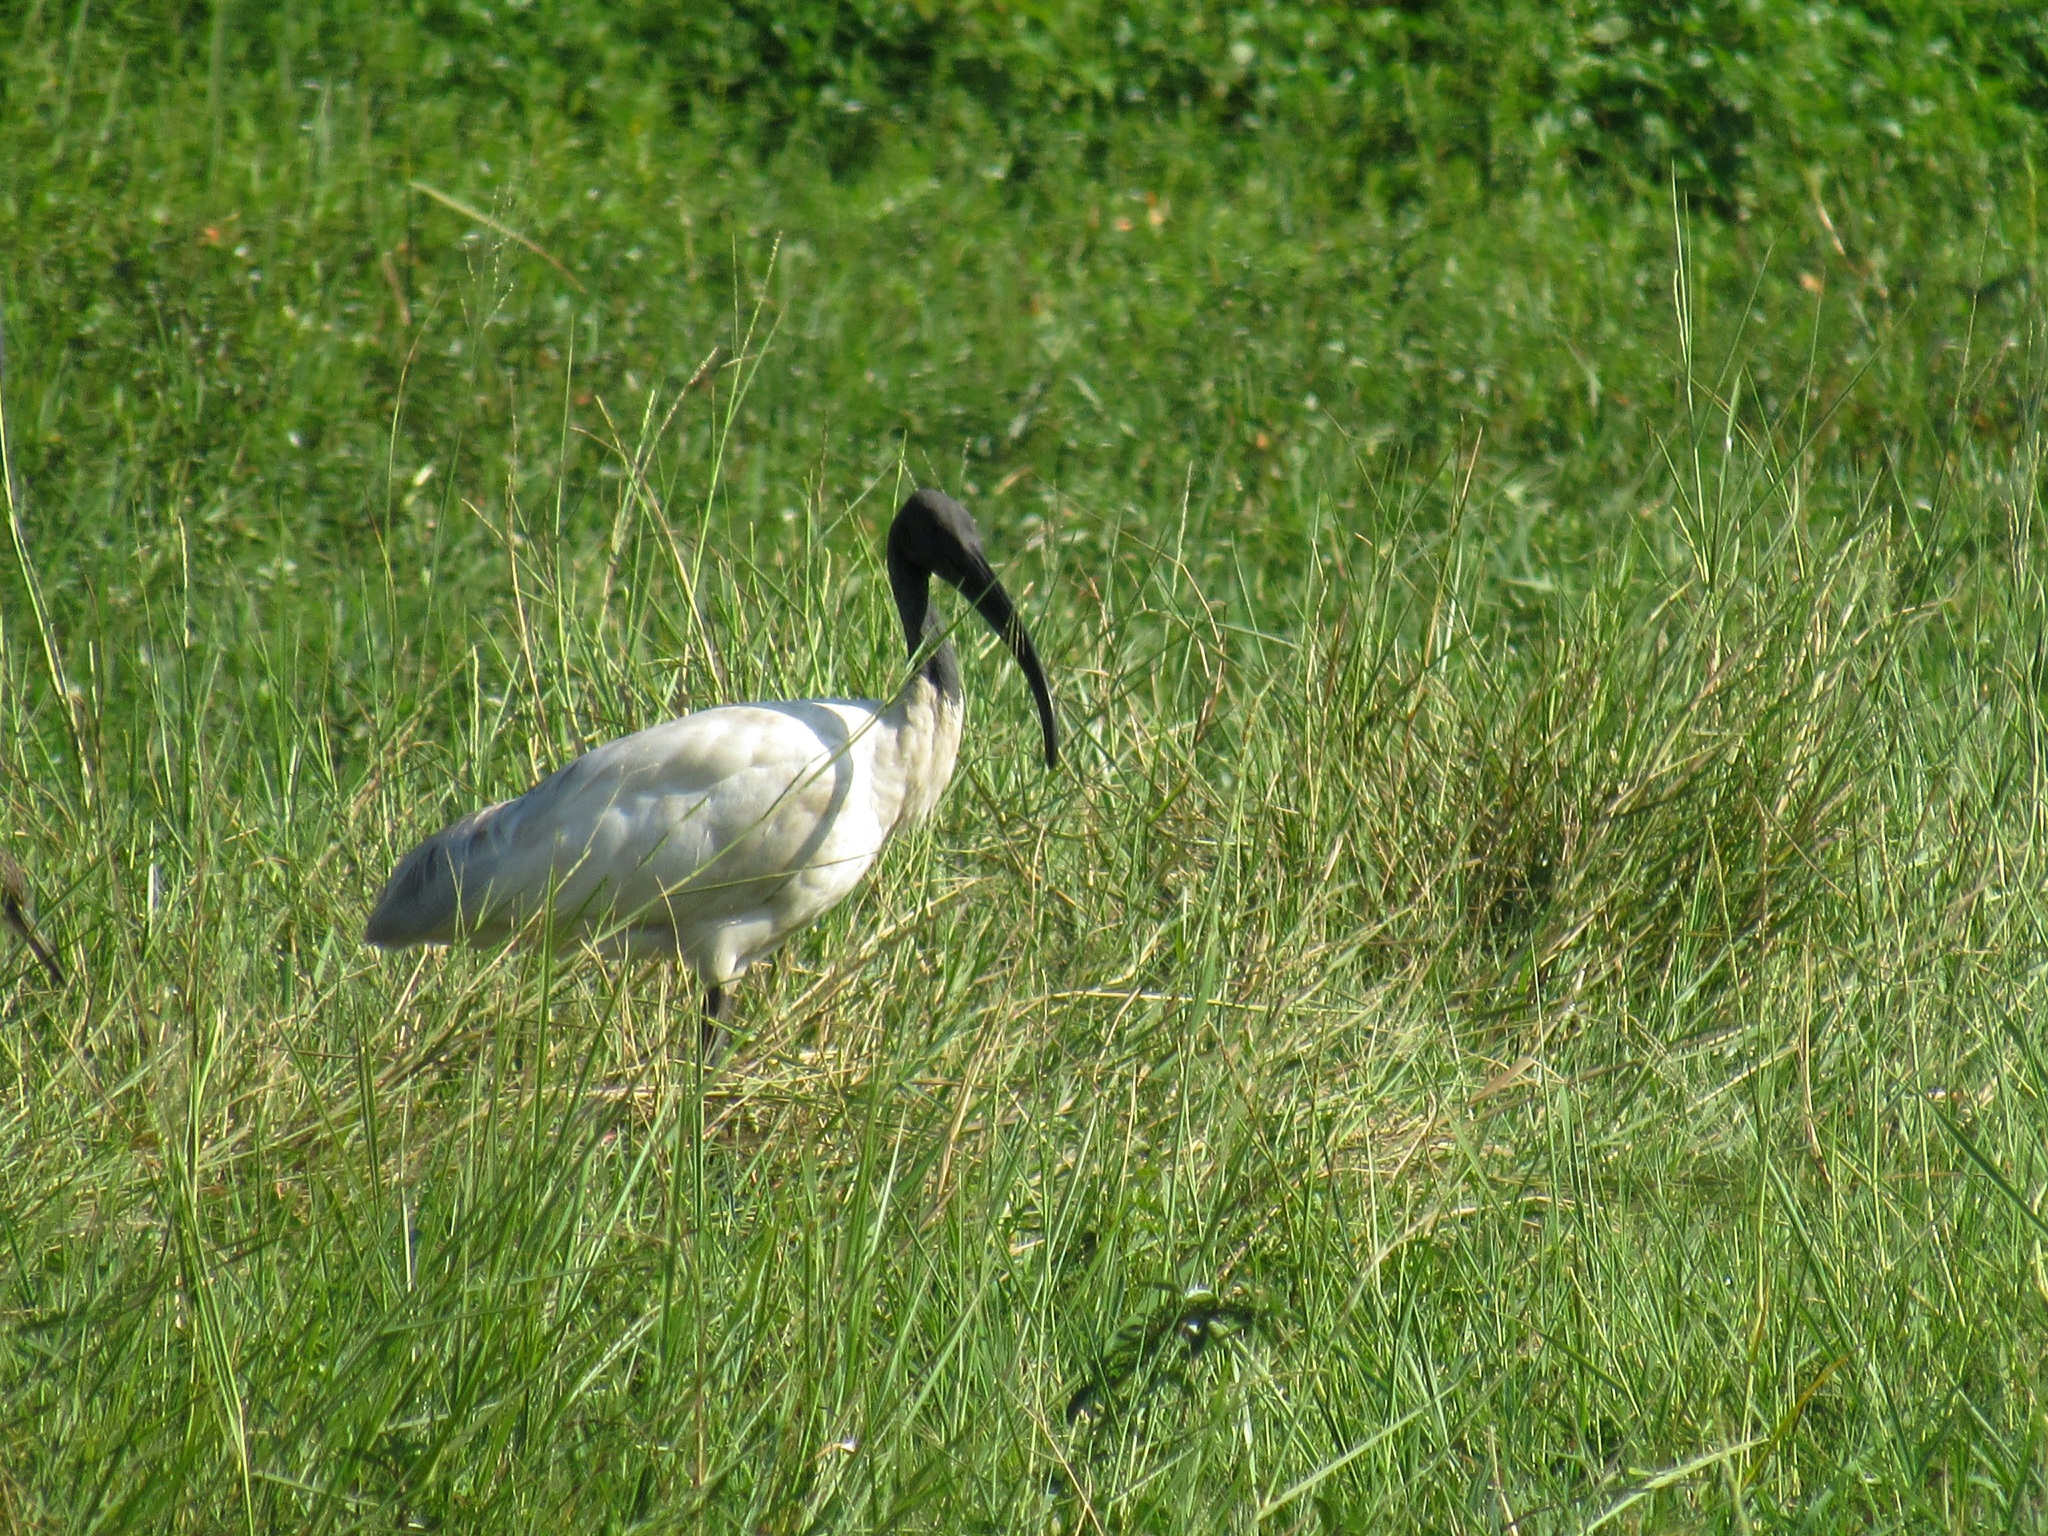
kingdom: Animalia
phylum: Chordata
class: Aves
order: Pelecaniformes
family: Threskiornithidae
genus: Threskiornis
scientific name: Threskiornis melanocephalus
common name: Black-headed ibis
